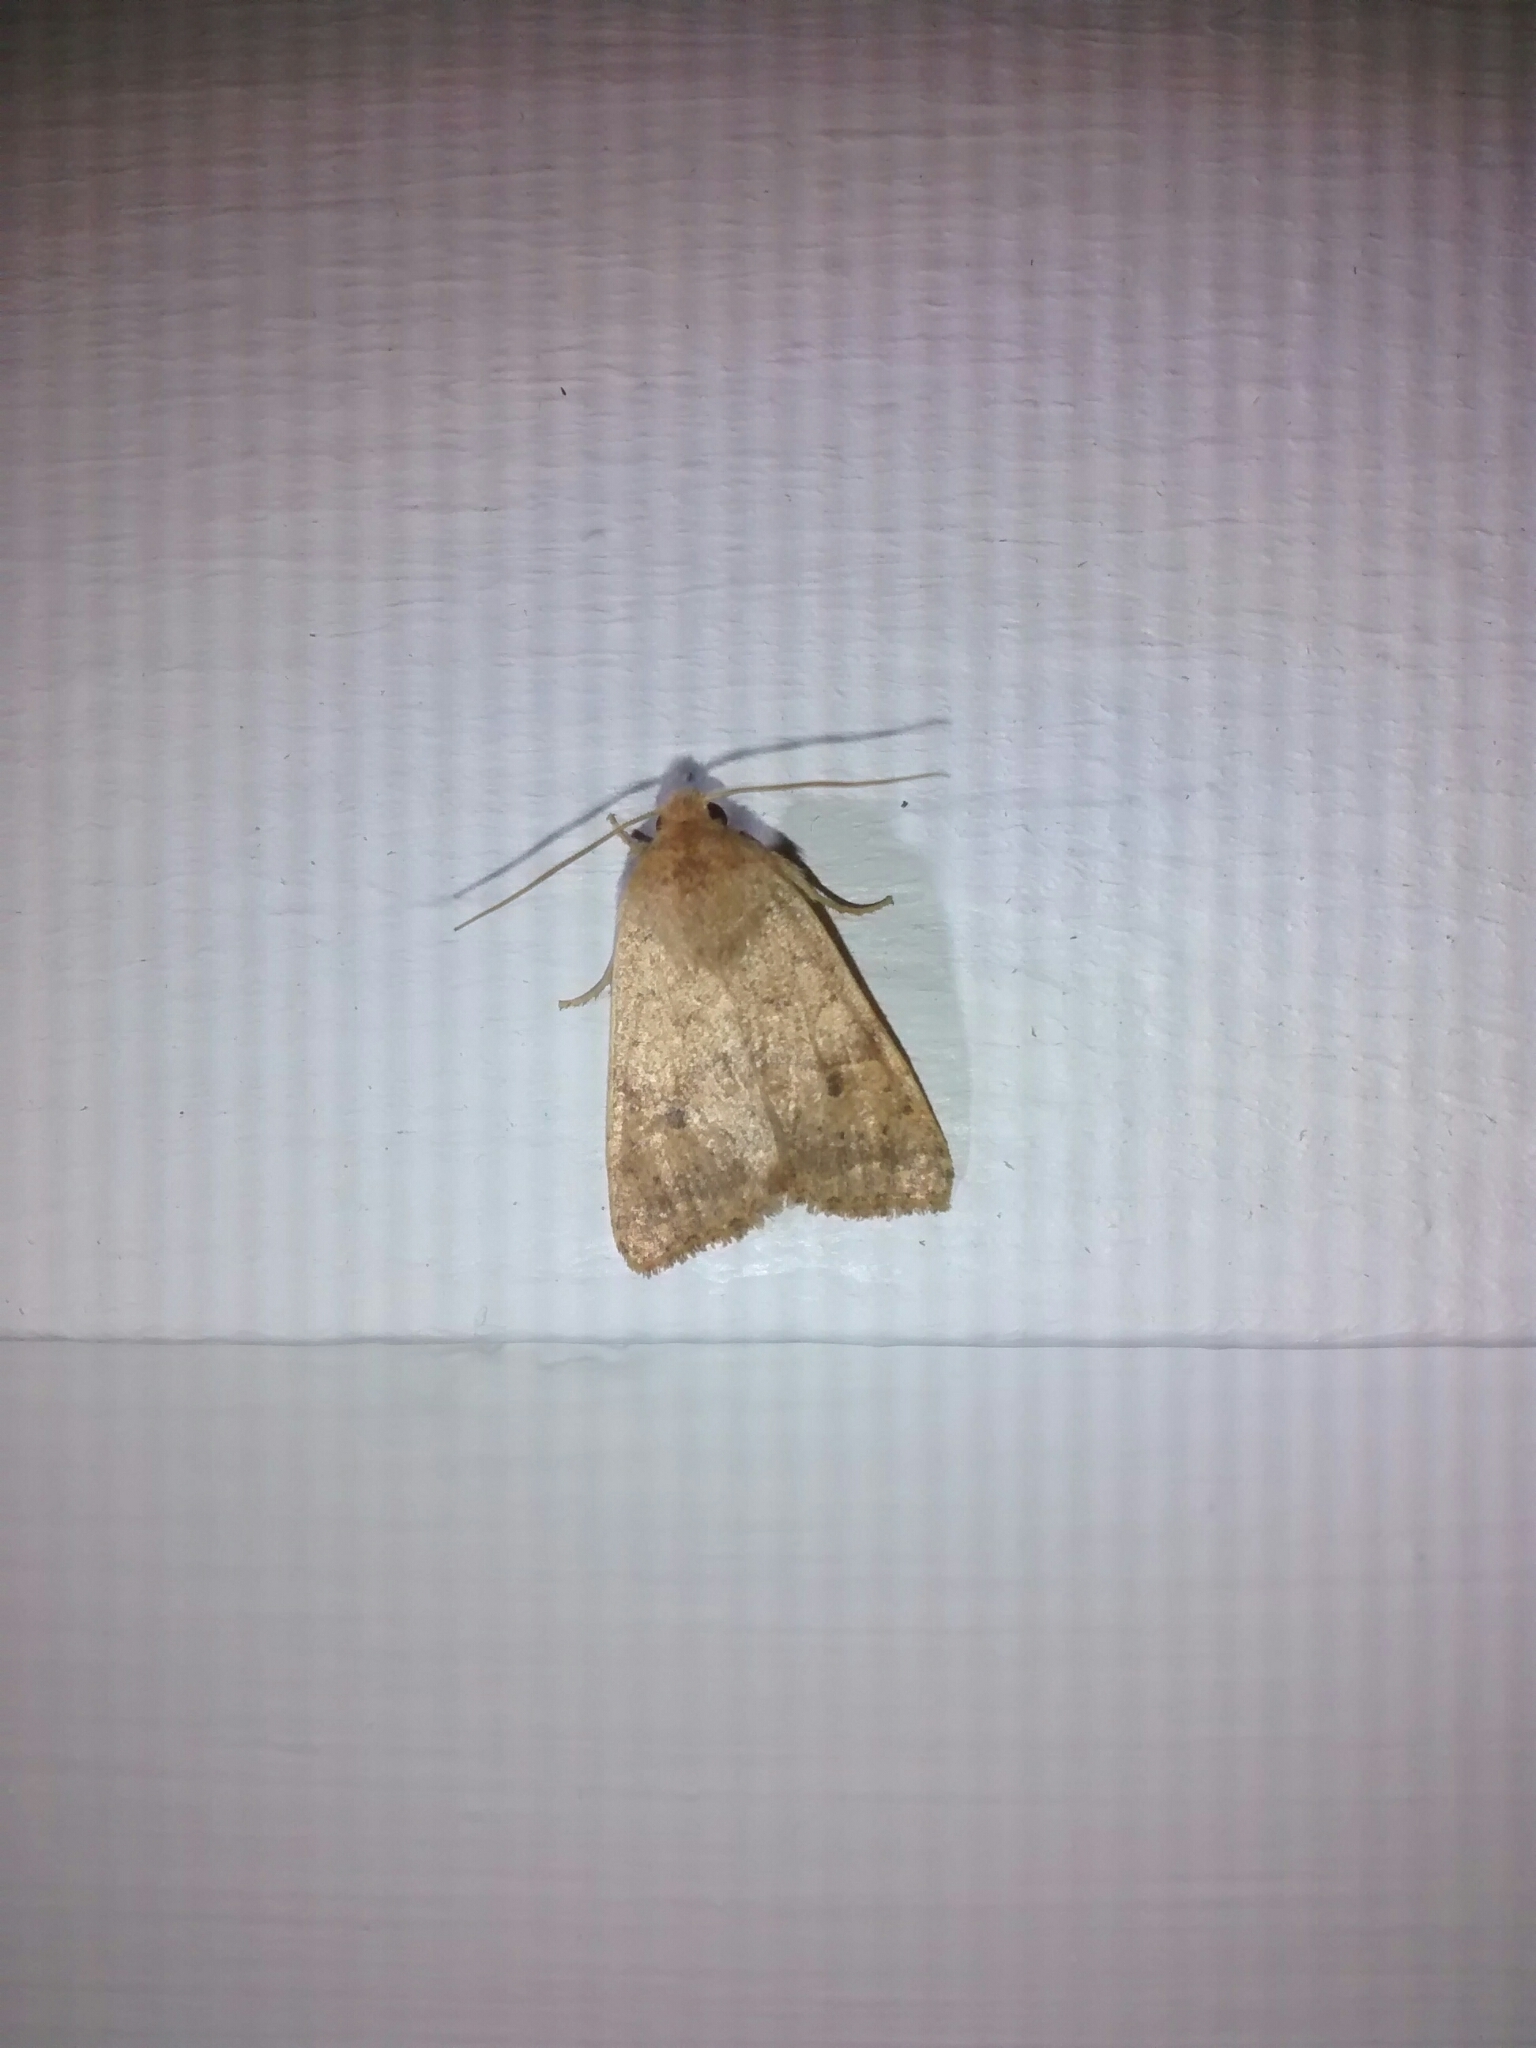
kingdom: Animalia
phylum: Arthropoda
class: Insecta
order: Lepidoptera
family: Noctuidae
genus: Agrochola
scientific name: Agrochola bicolorago
